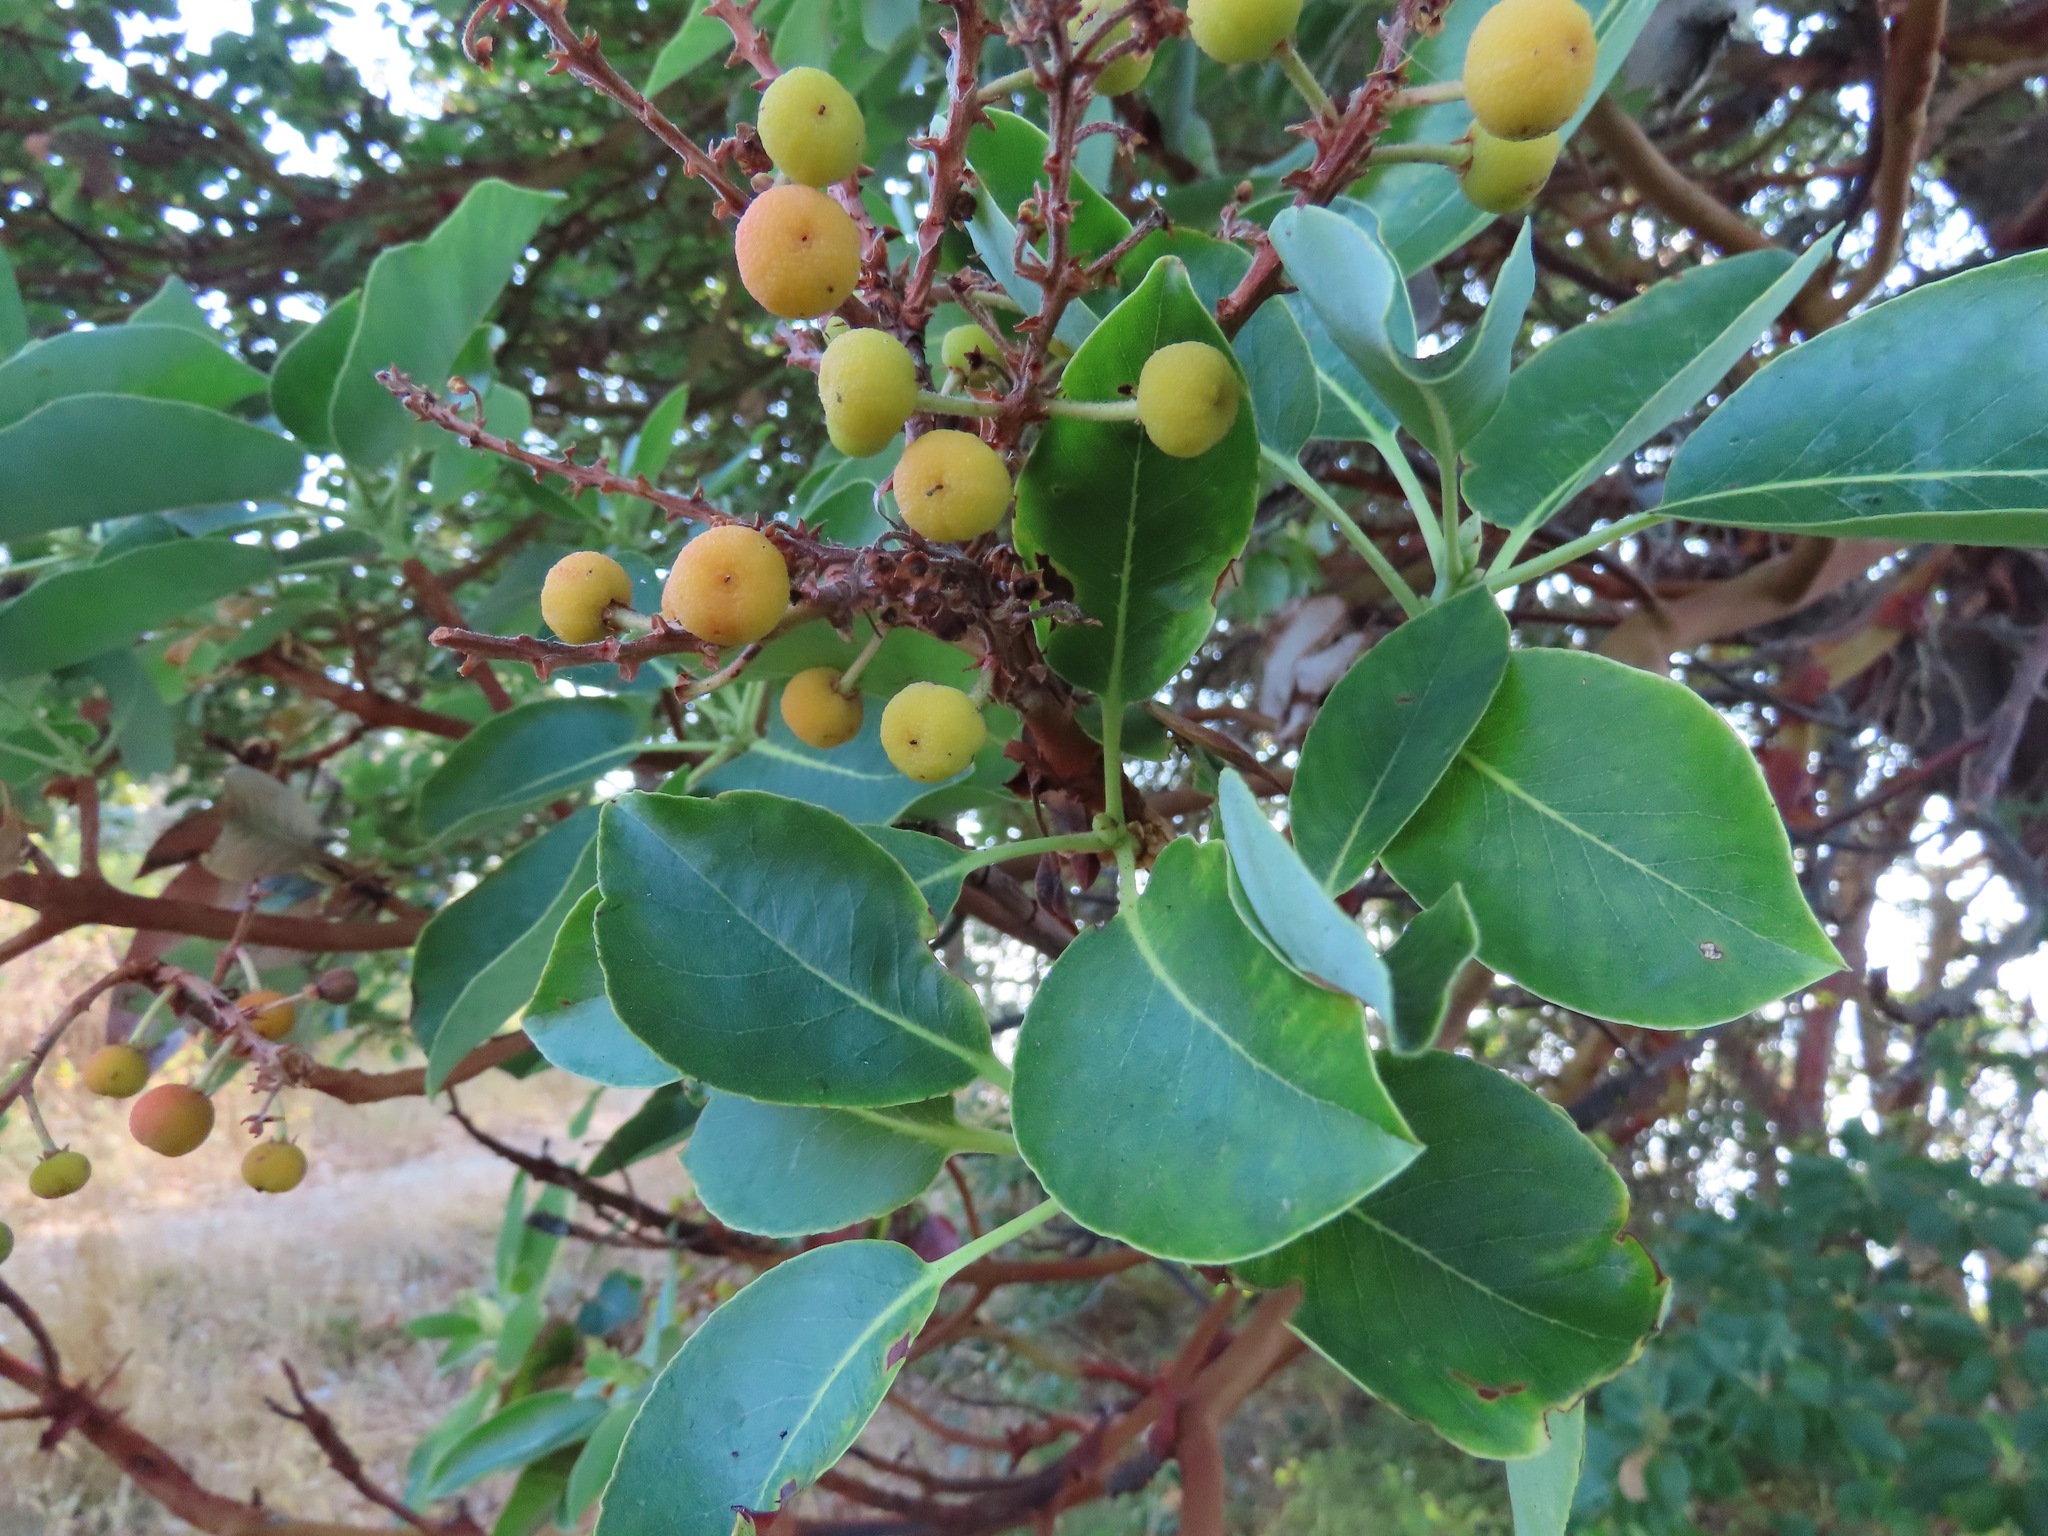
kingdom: Plantae
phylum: Tracheophyta
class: Magnoliopsida
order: Ericales
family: Ericaceae
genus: Arbutus
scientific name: Arbutus menziesii
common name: Pacific madrone
